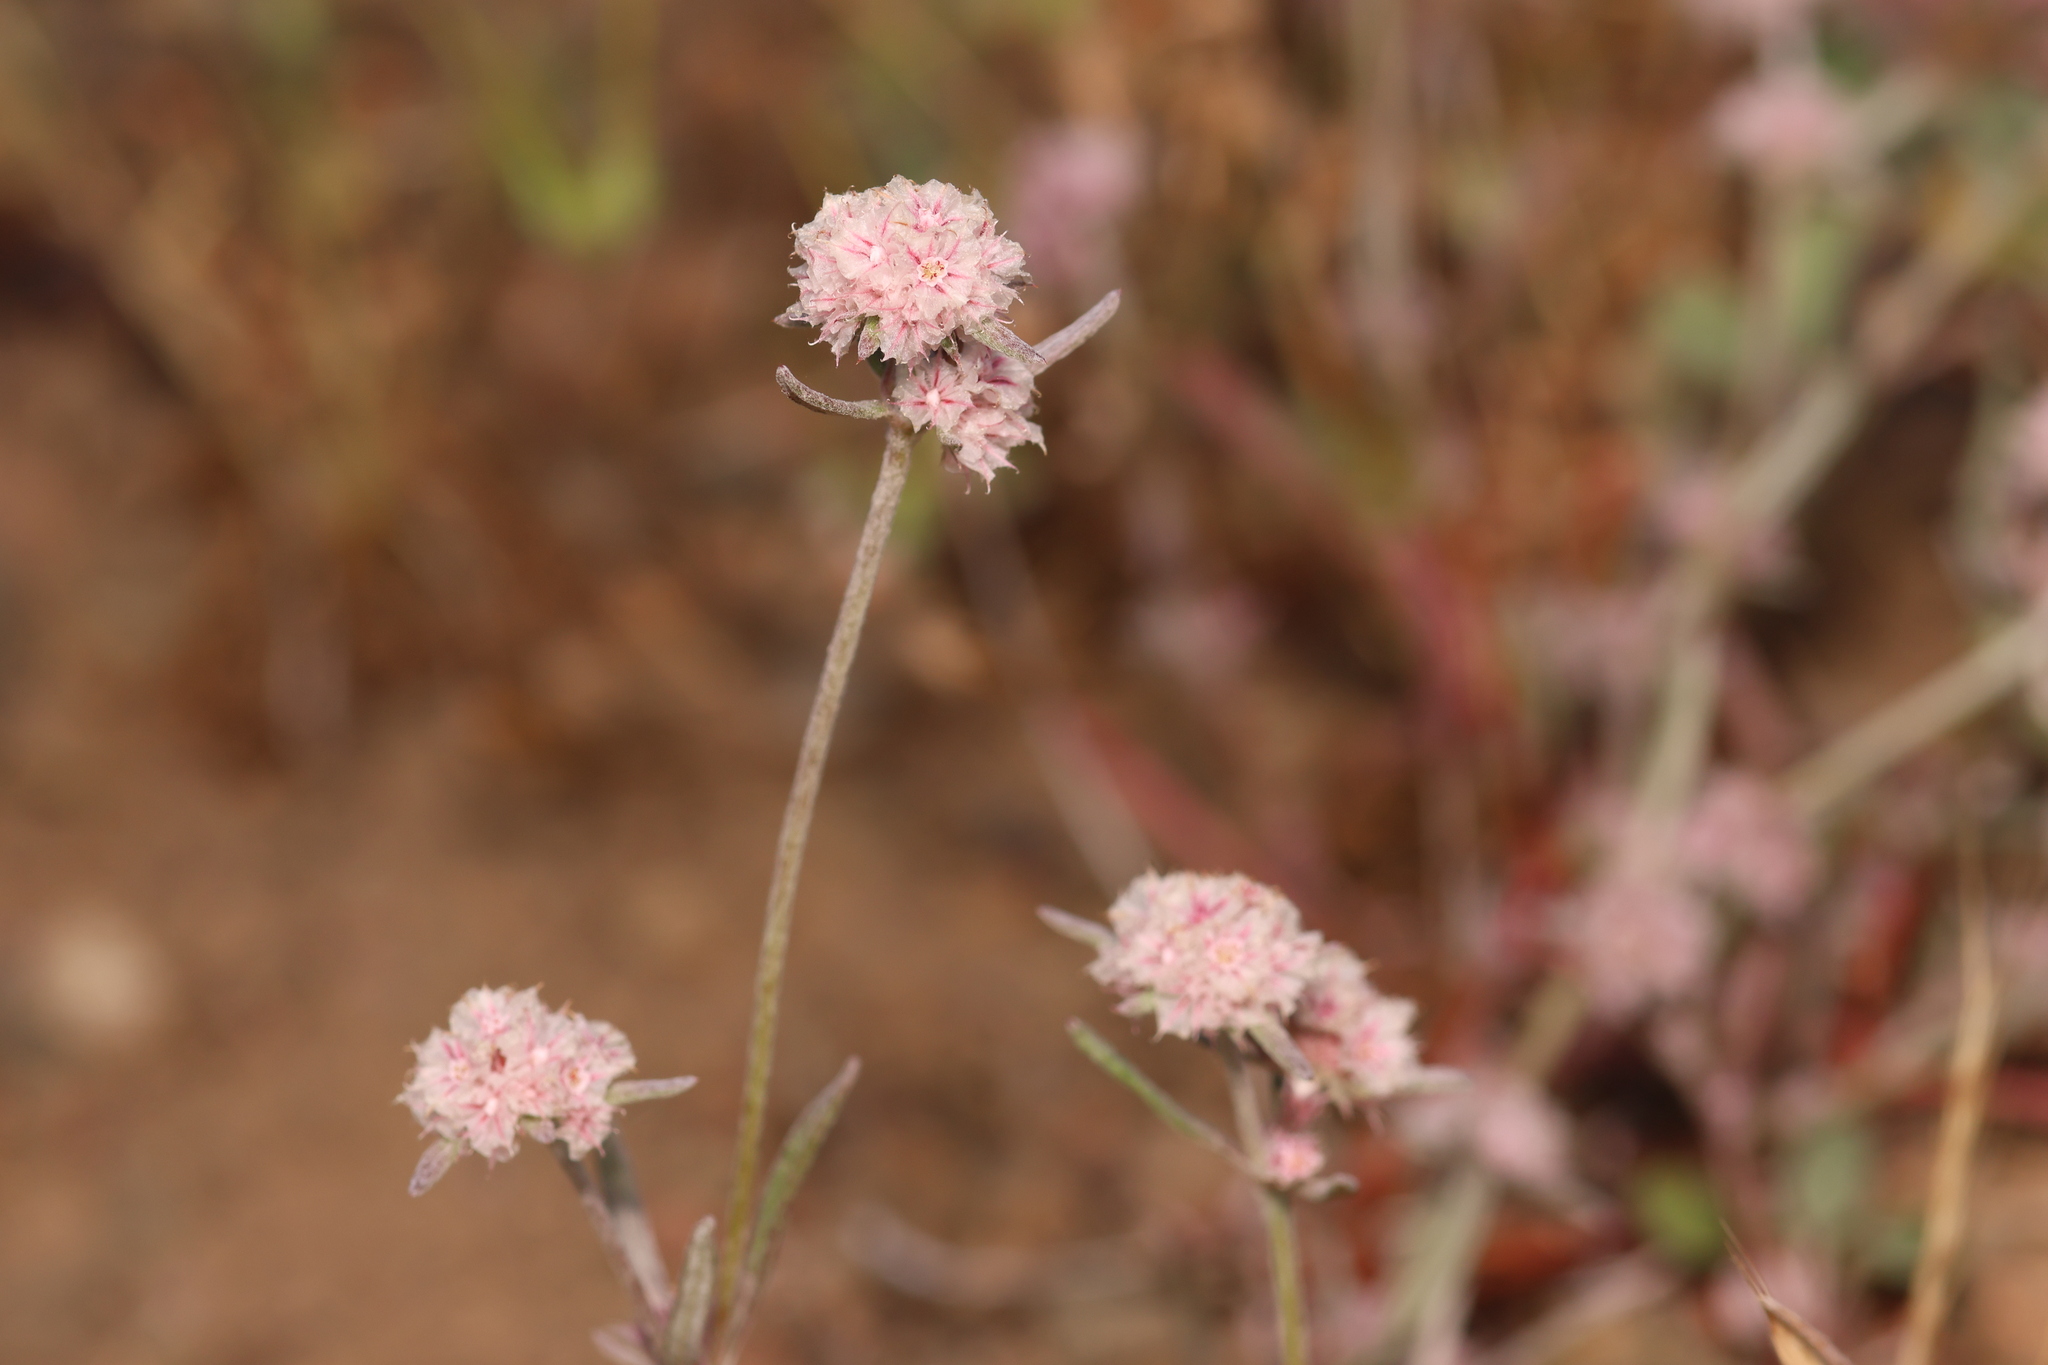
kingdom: Plantae
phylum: Tracheophyta
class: Magnoliopsida
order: Caryophyllales
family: Polygonaceae
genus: Chorizanthe
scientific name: Chorizanthe membranacea
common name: Pink spineflower
